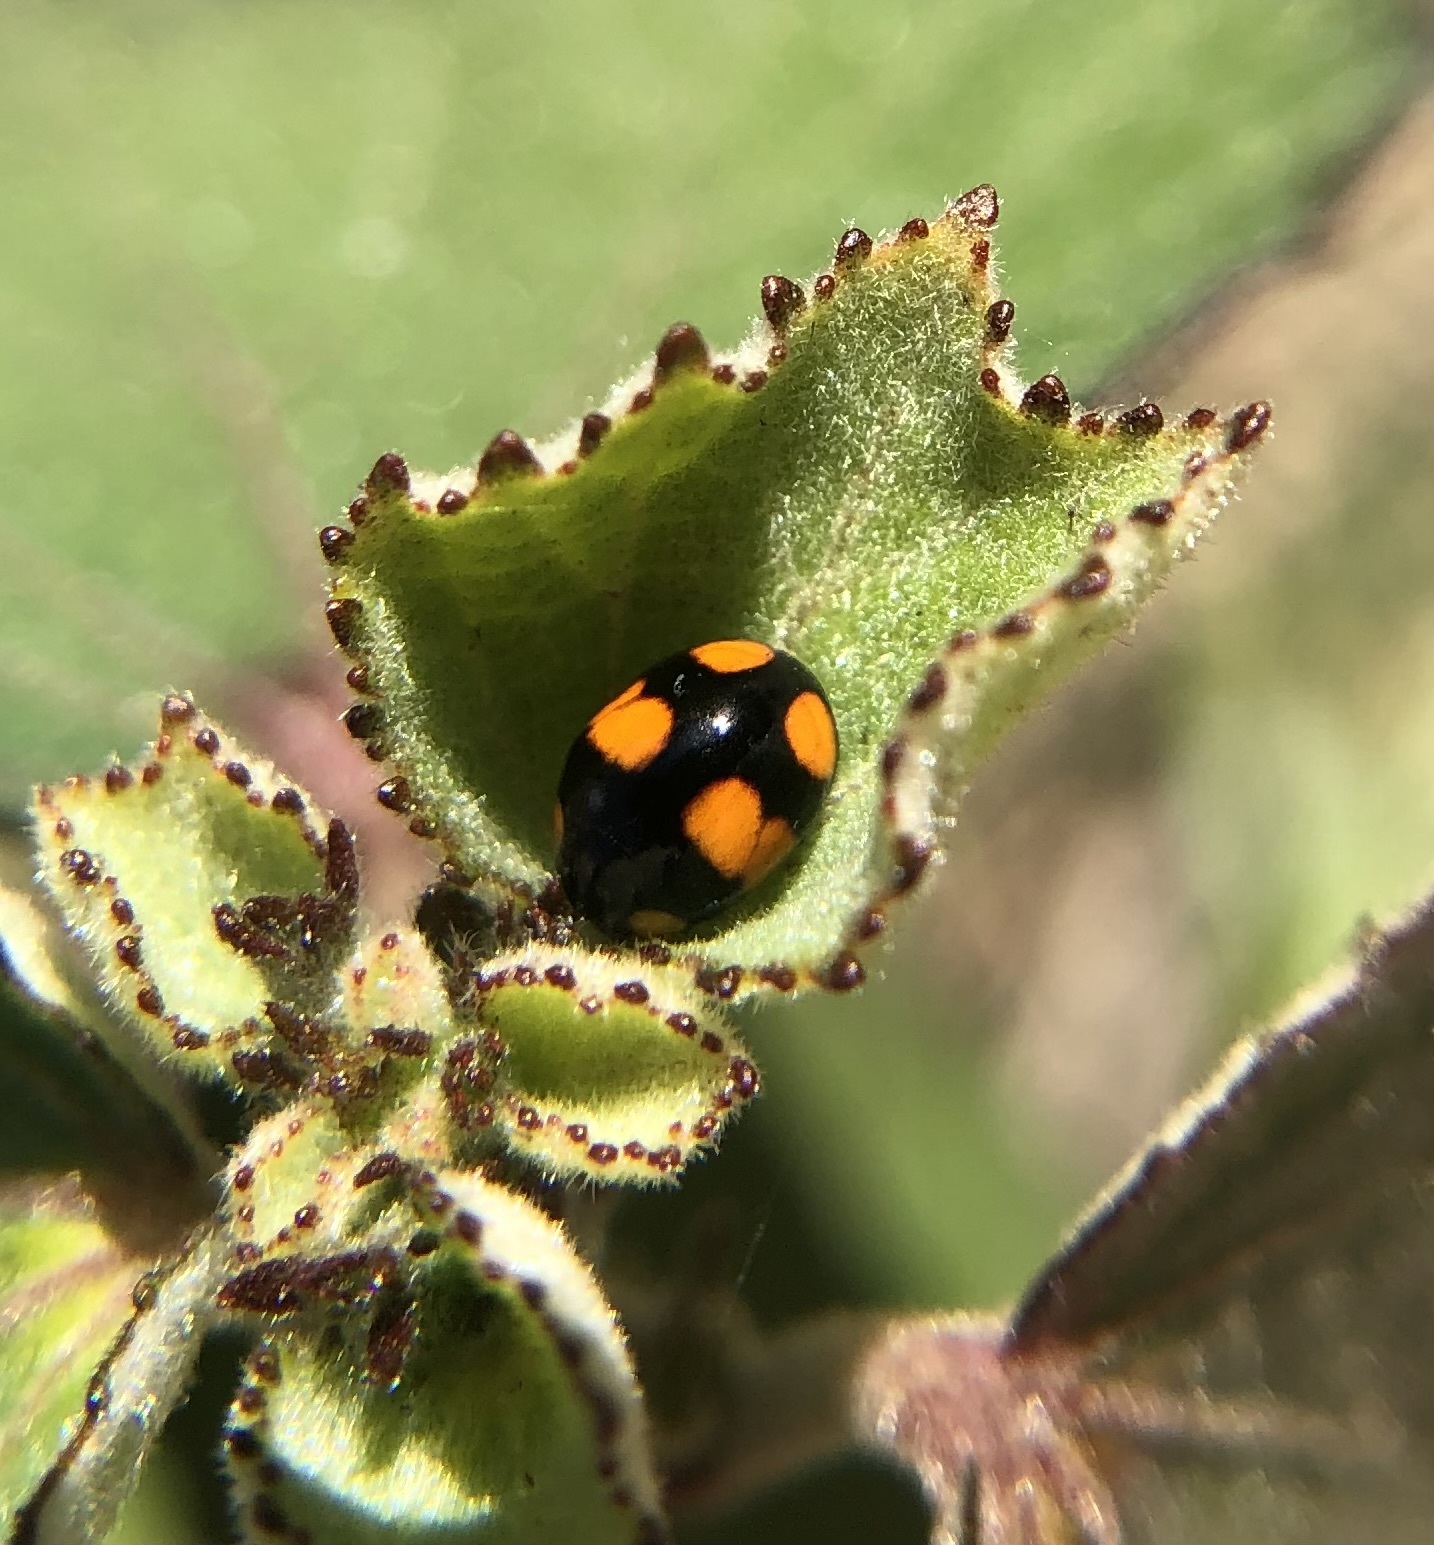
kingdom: Animalia
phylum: Arthropoda
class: Insecta
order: Coleoptera
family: Coccinellidae
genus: Brachiacantha
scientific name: Brachiacantha dentipes
